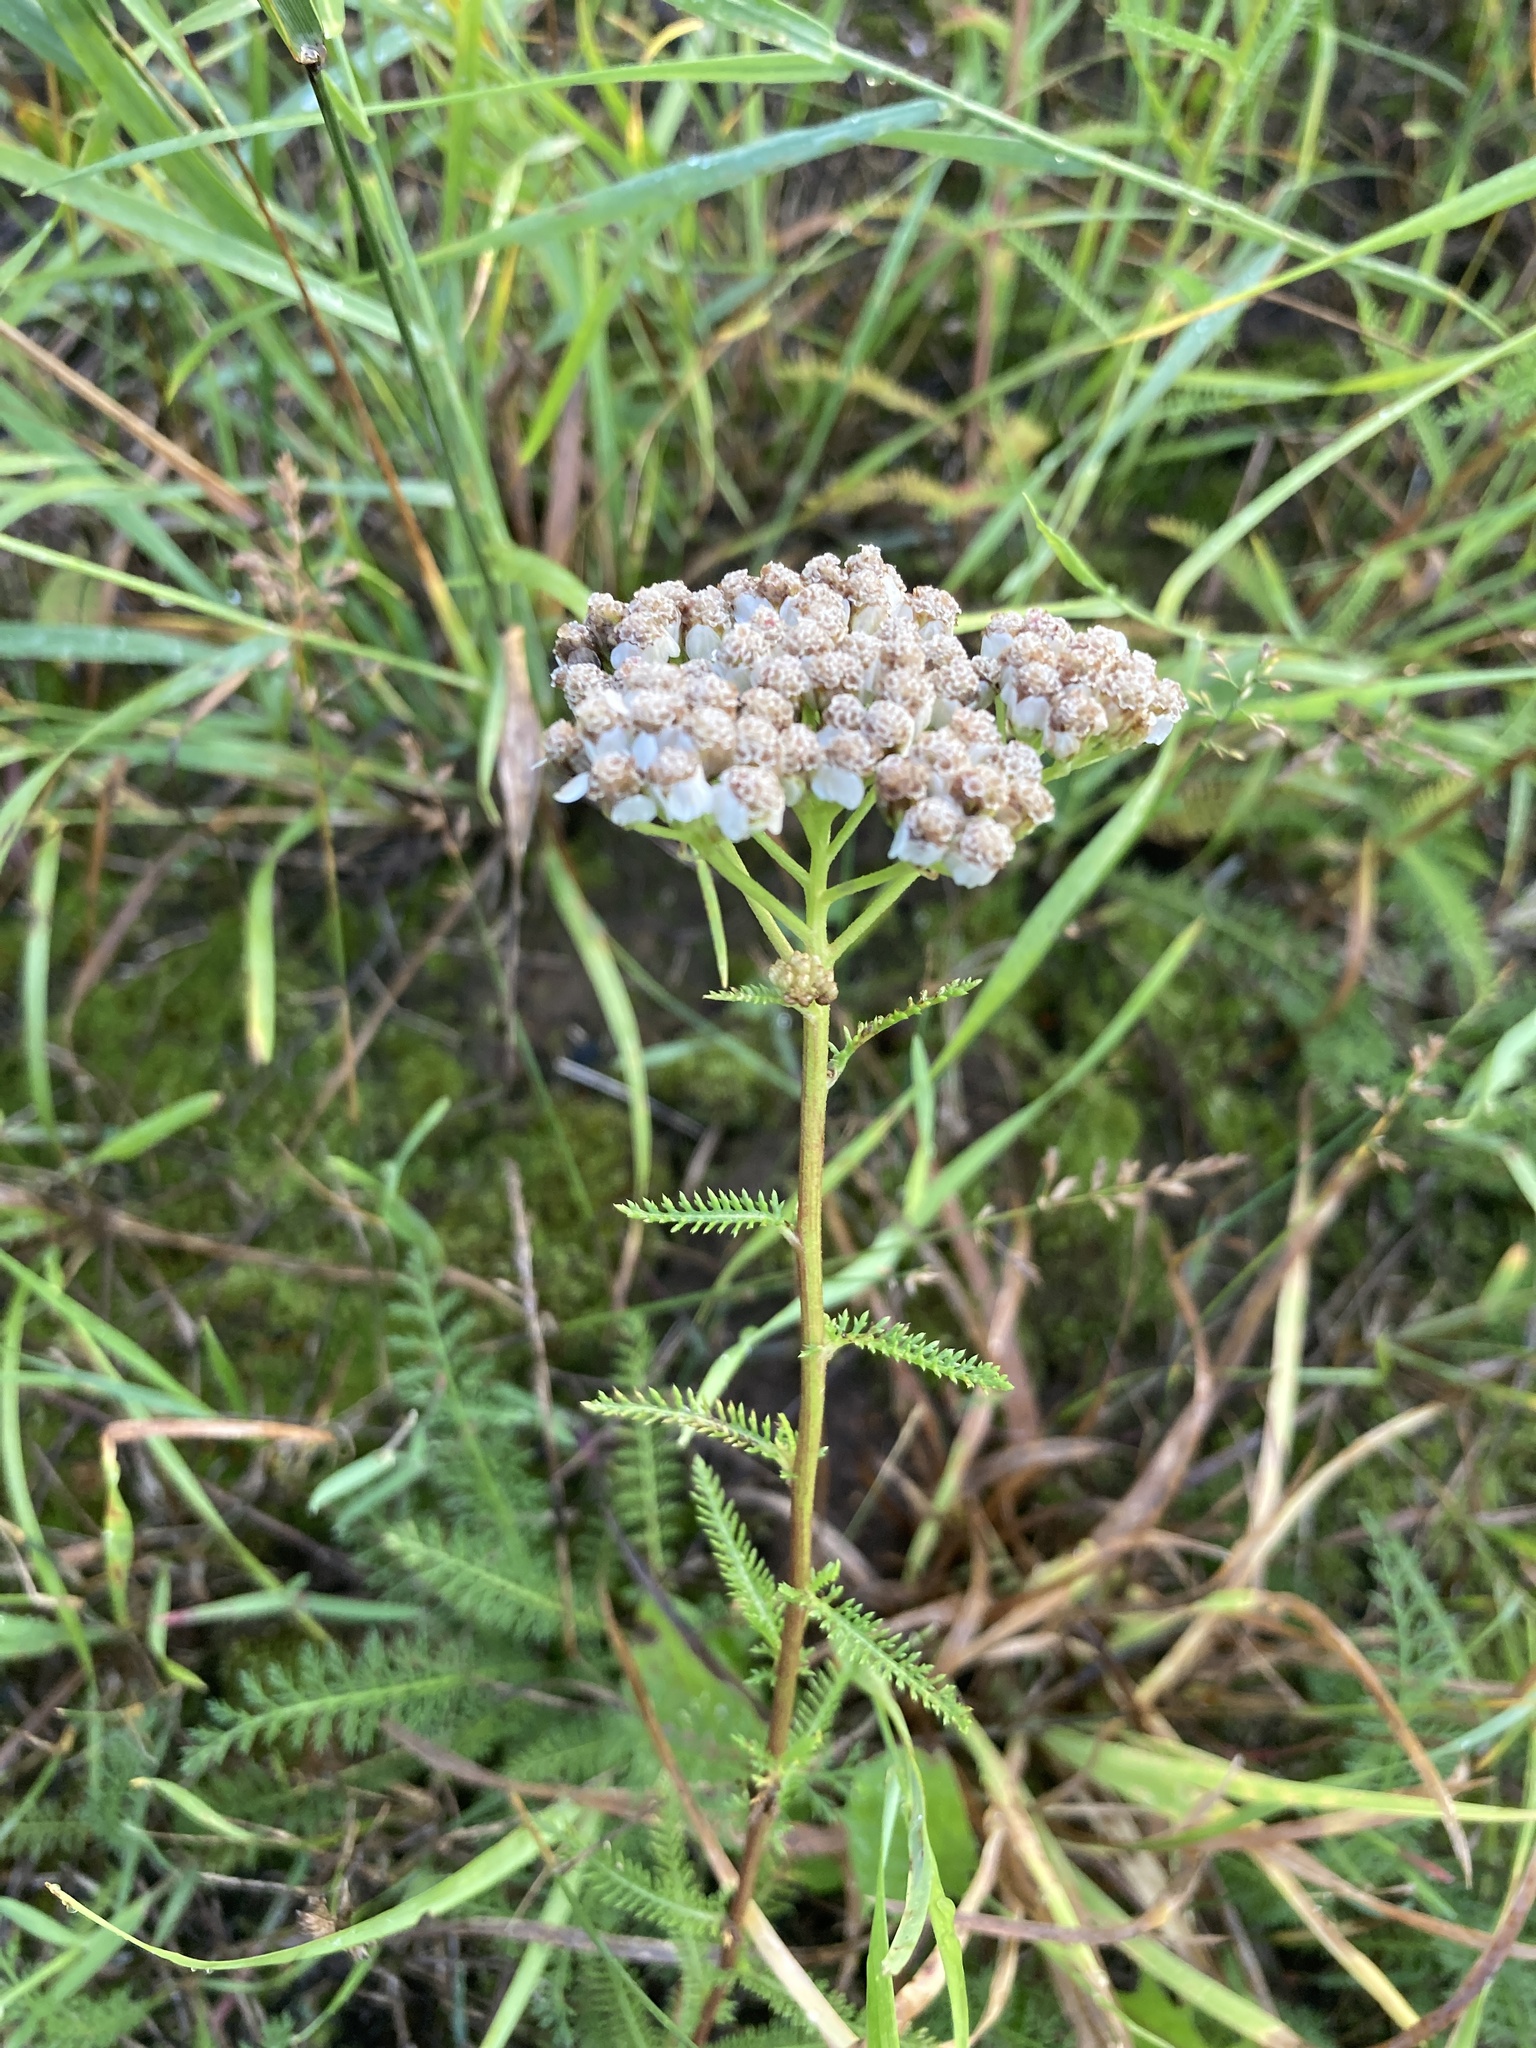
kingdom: Plantae
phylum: Tracheophyta
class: Magnoliopsida
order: Asterales
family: Asteraceae
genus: Achillea
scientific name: Achillea millefolium
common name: Yarrow
